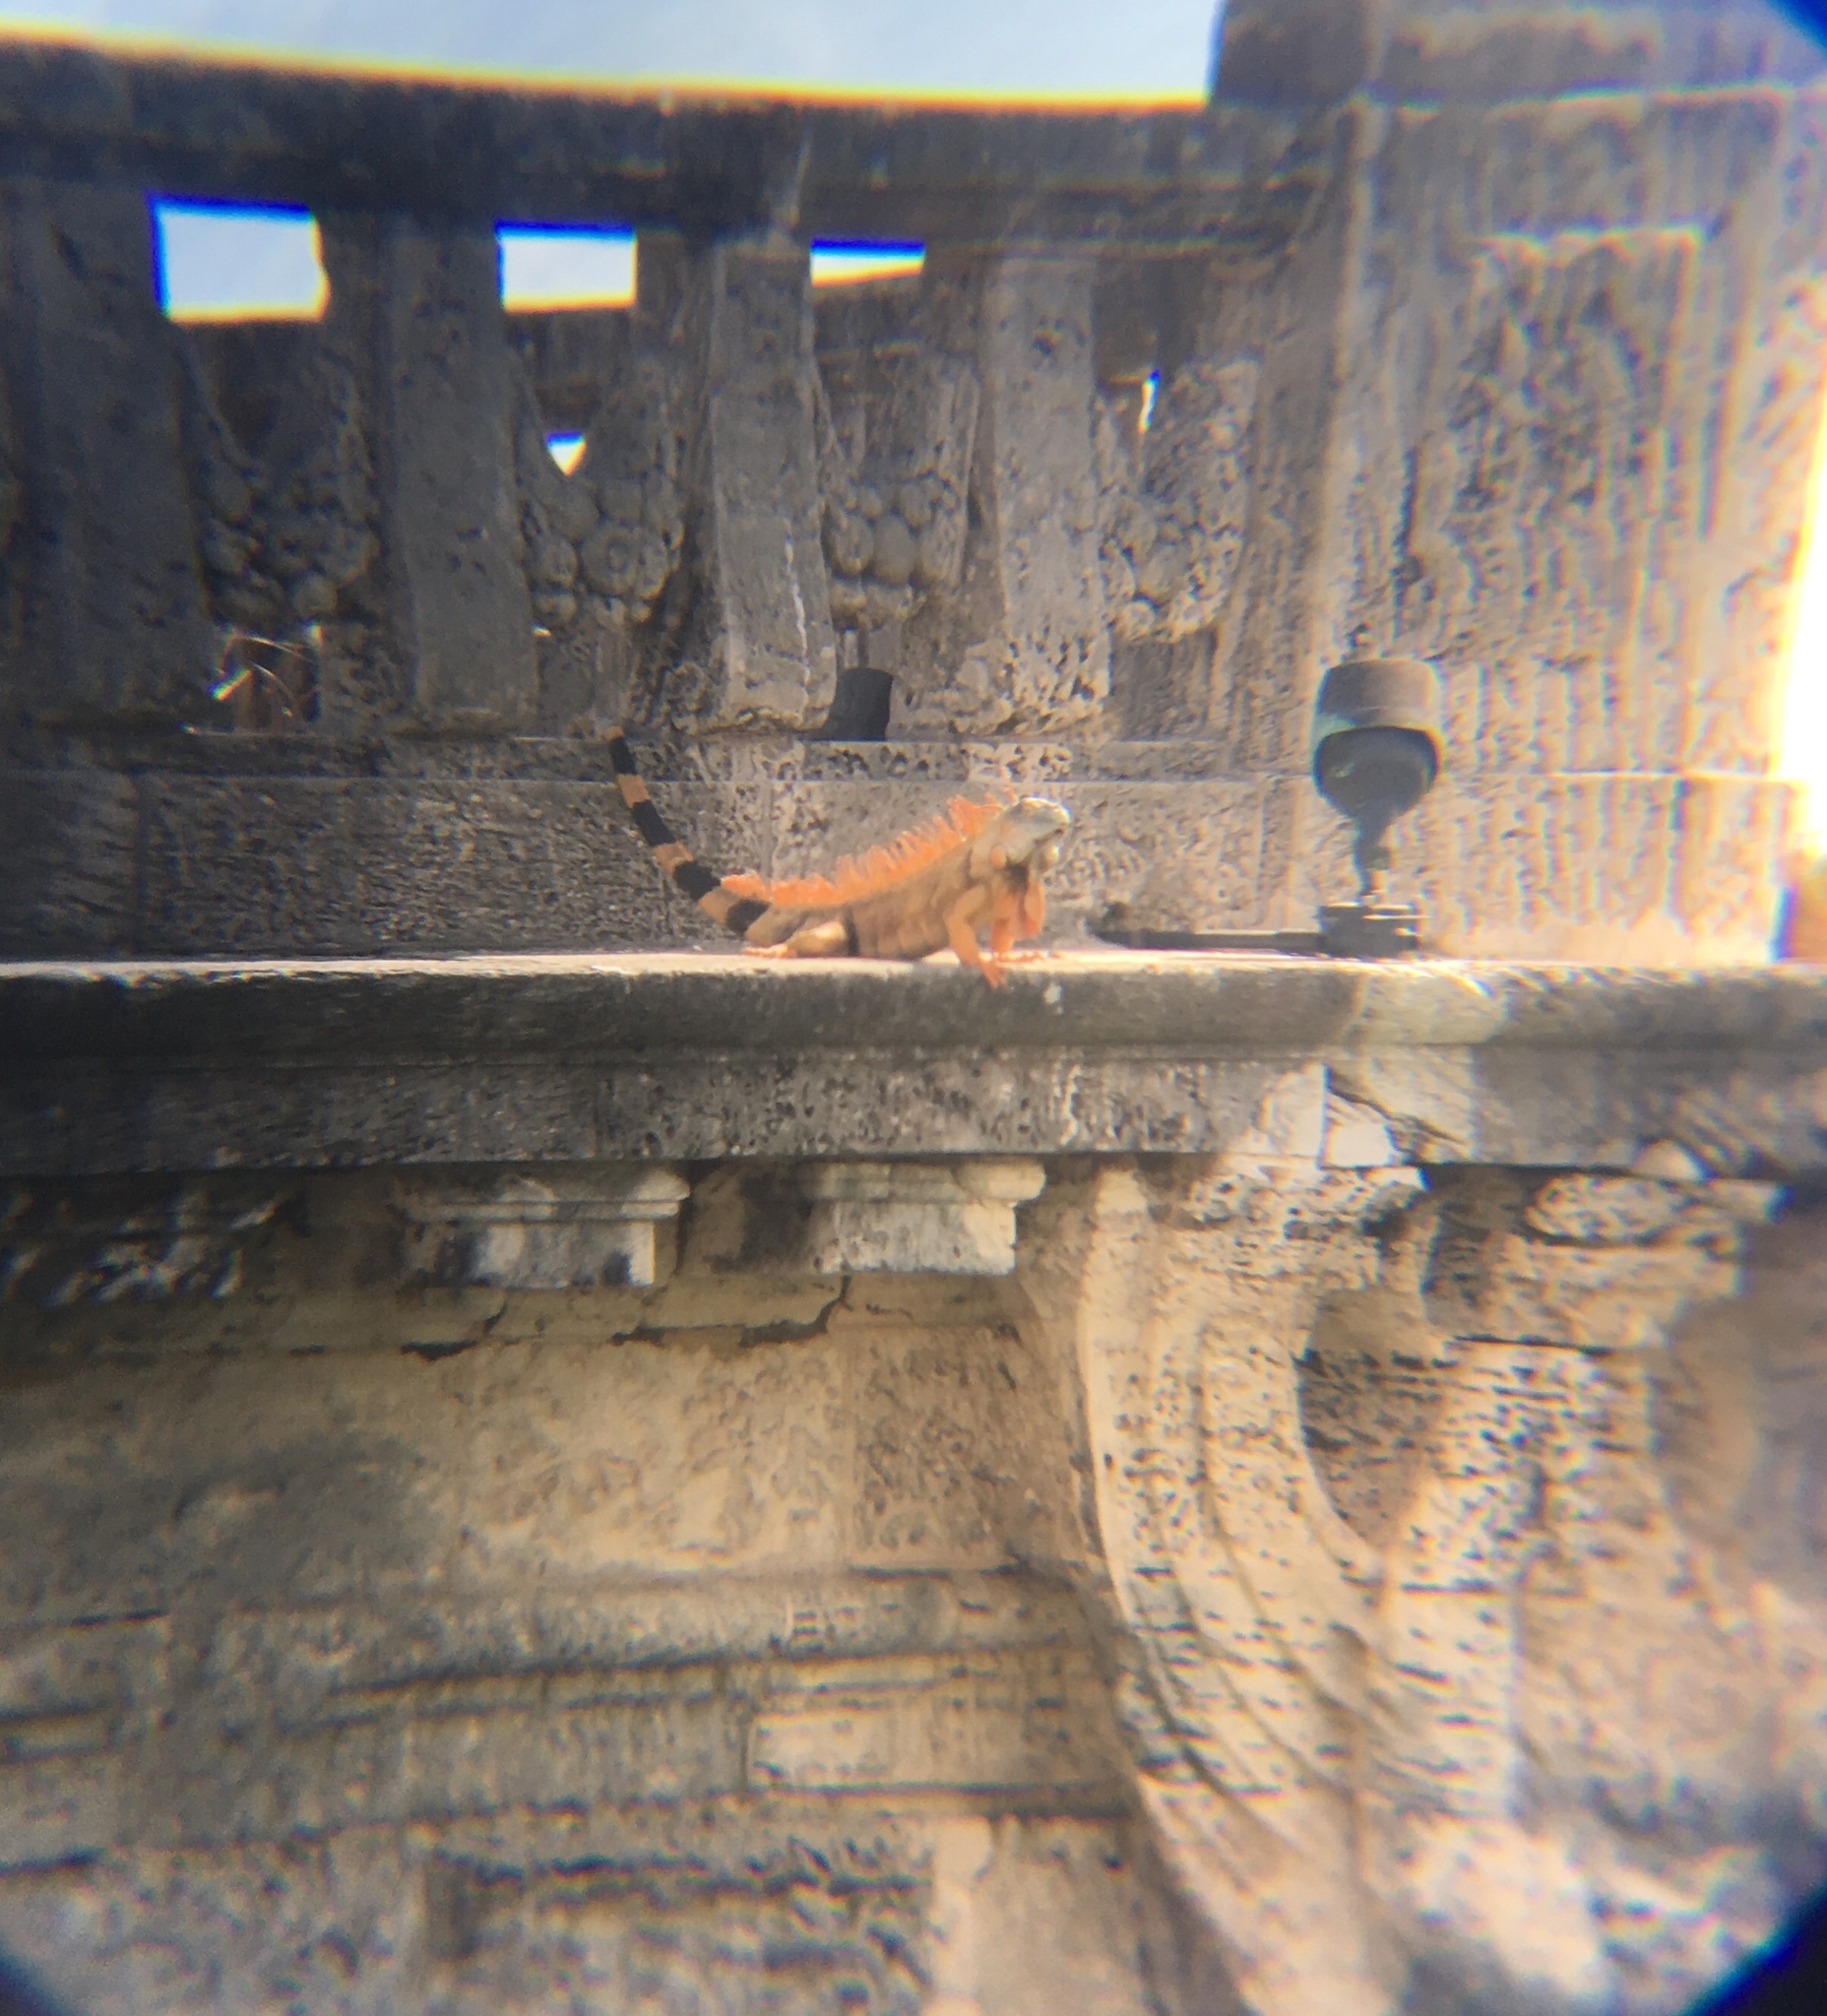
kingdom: Animalia
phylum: Chordata
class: Squamata
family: Iguanidae
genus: Iguana
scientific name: Iguana iguana
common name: Green iguana
